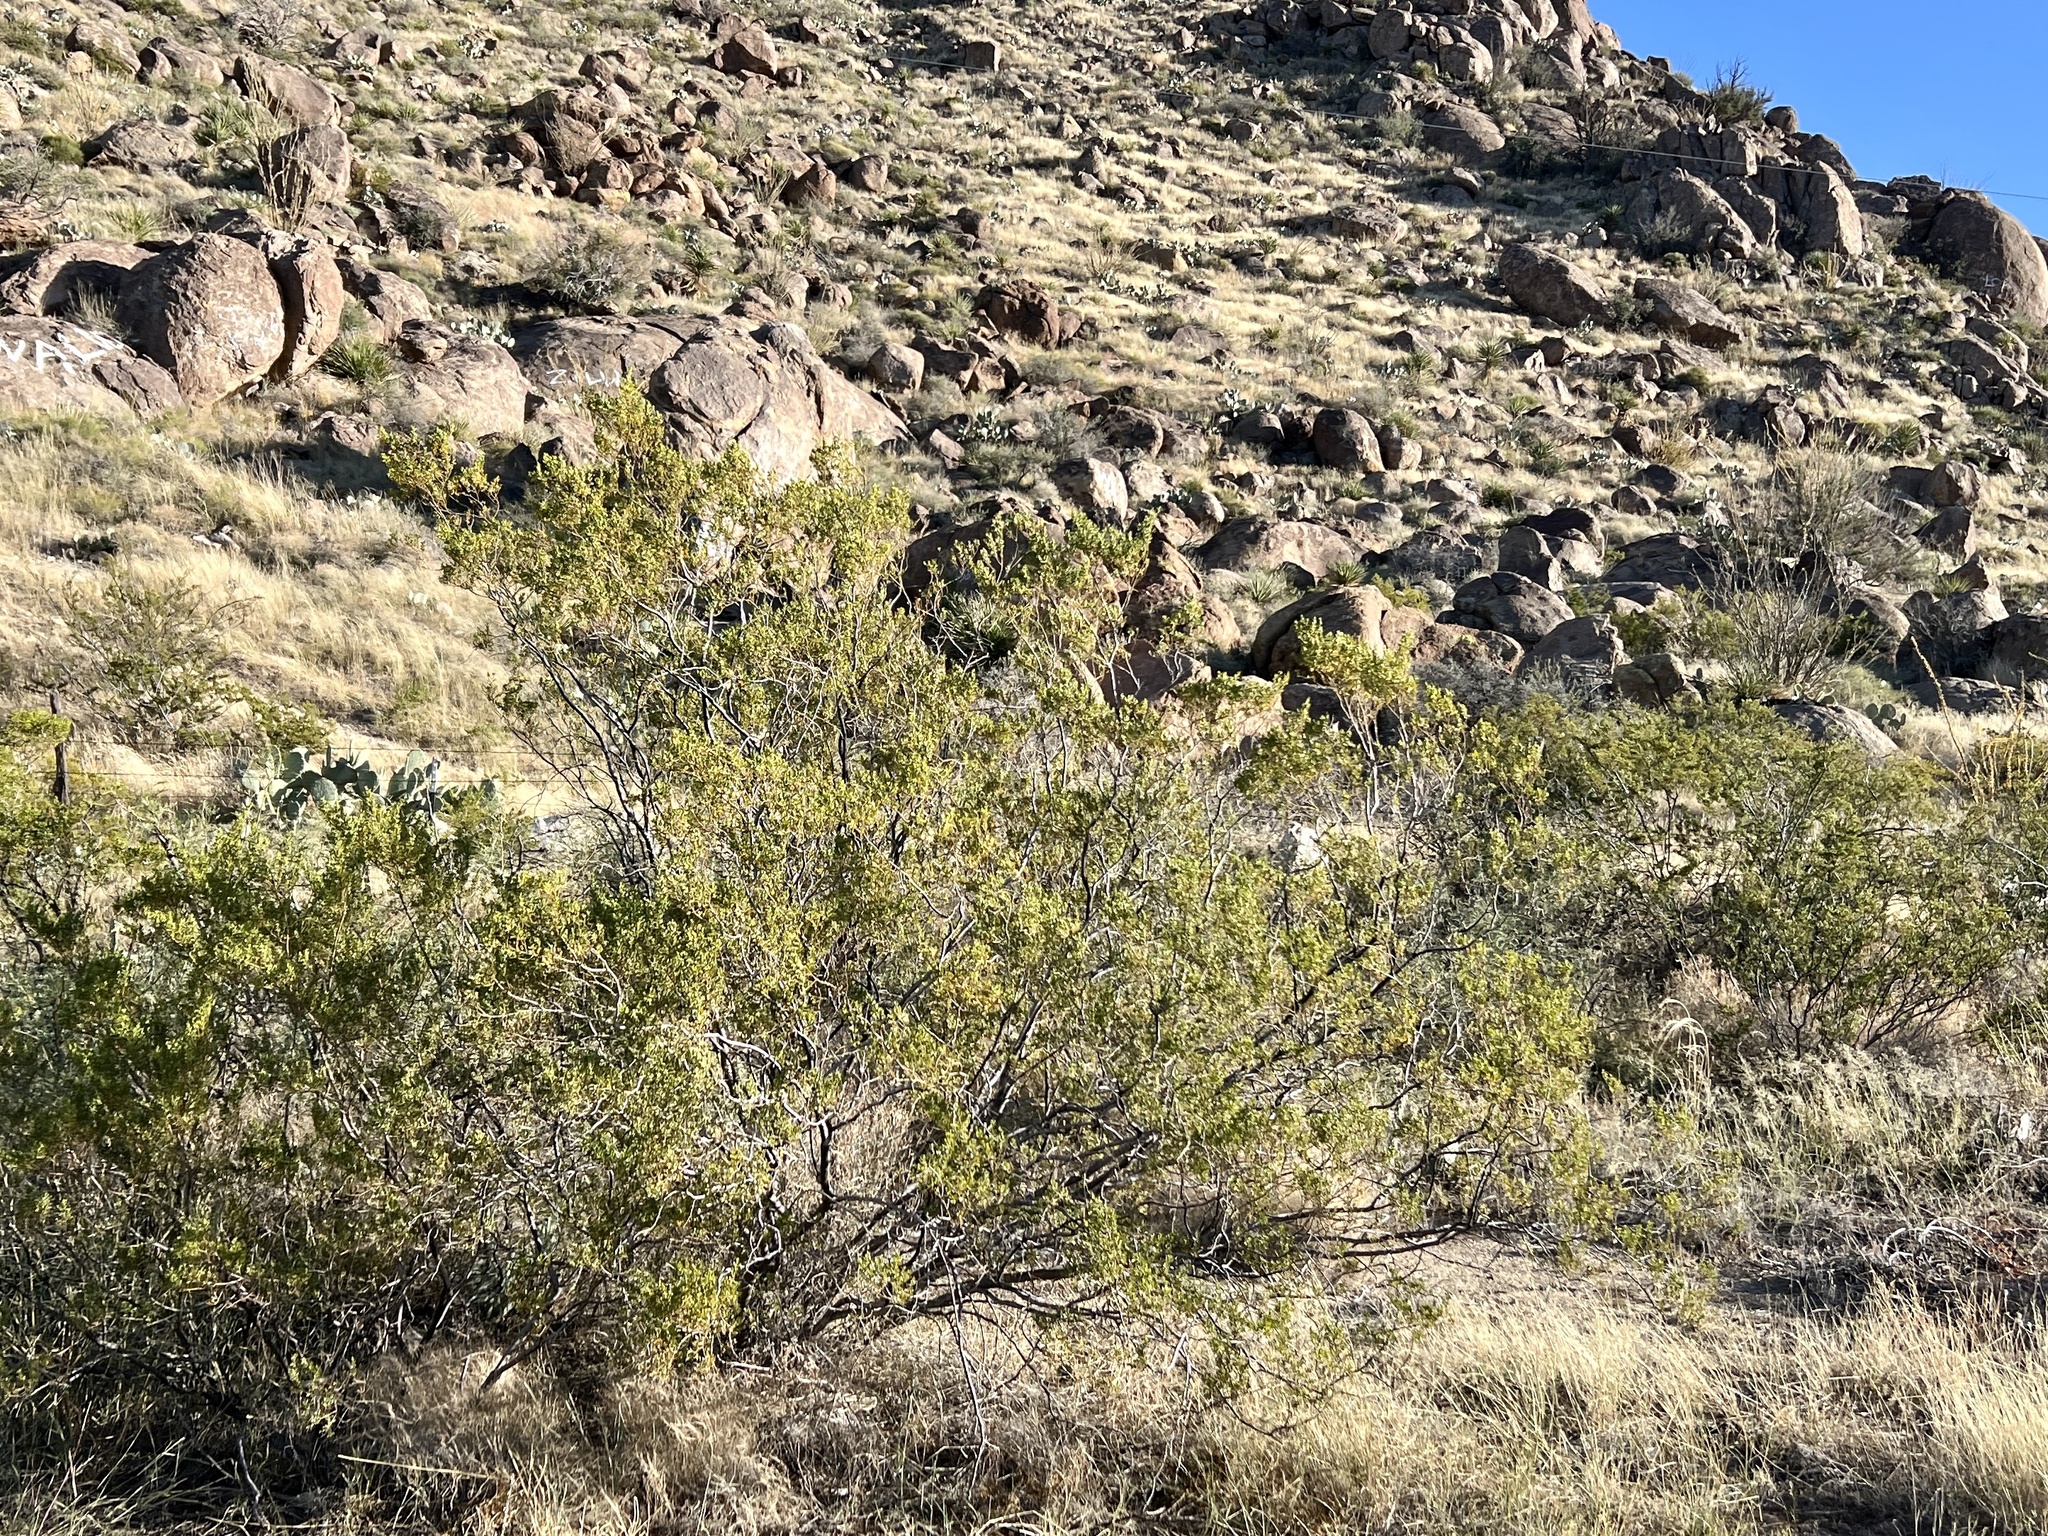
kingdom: Plantae
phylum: Tracheophyta
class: Magnoliopsida
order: Zygophyllales
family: Zygophyllaceae
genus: Larrea
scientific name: Larrea tridentata
